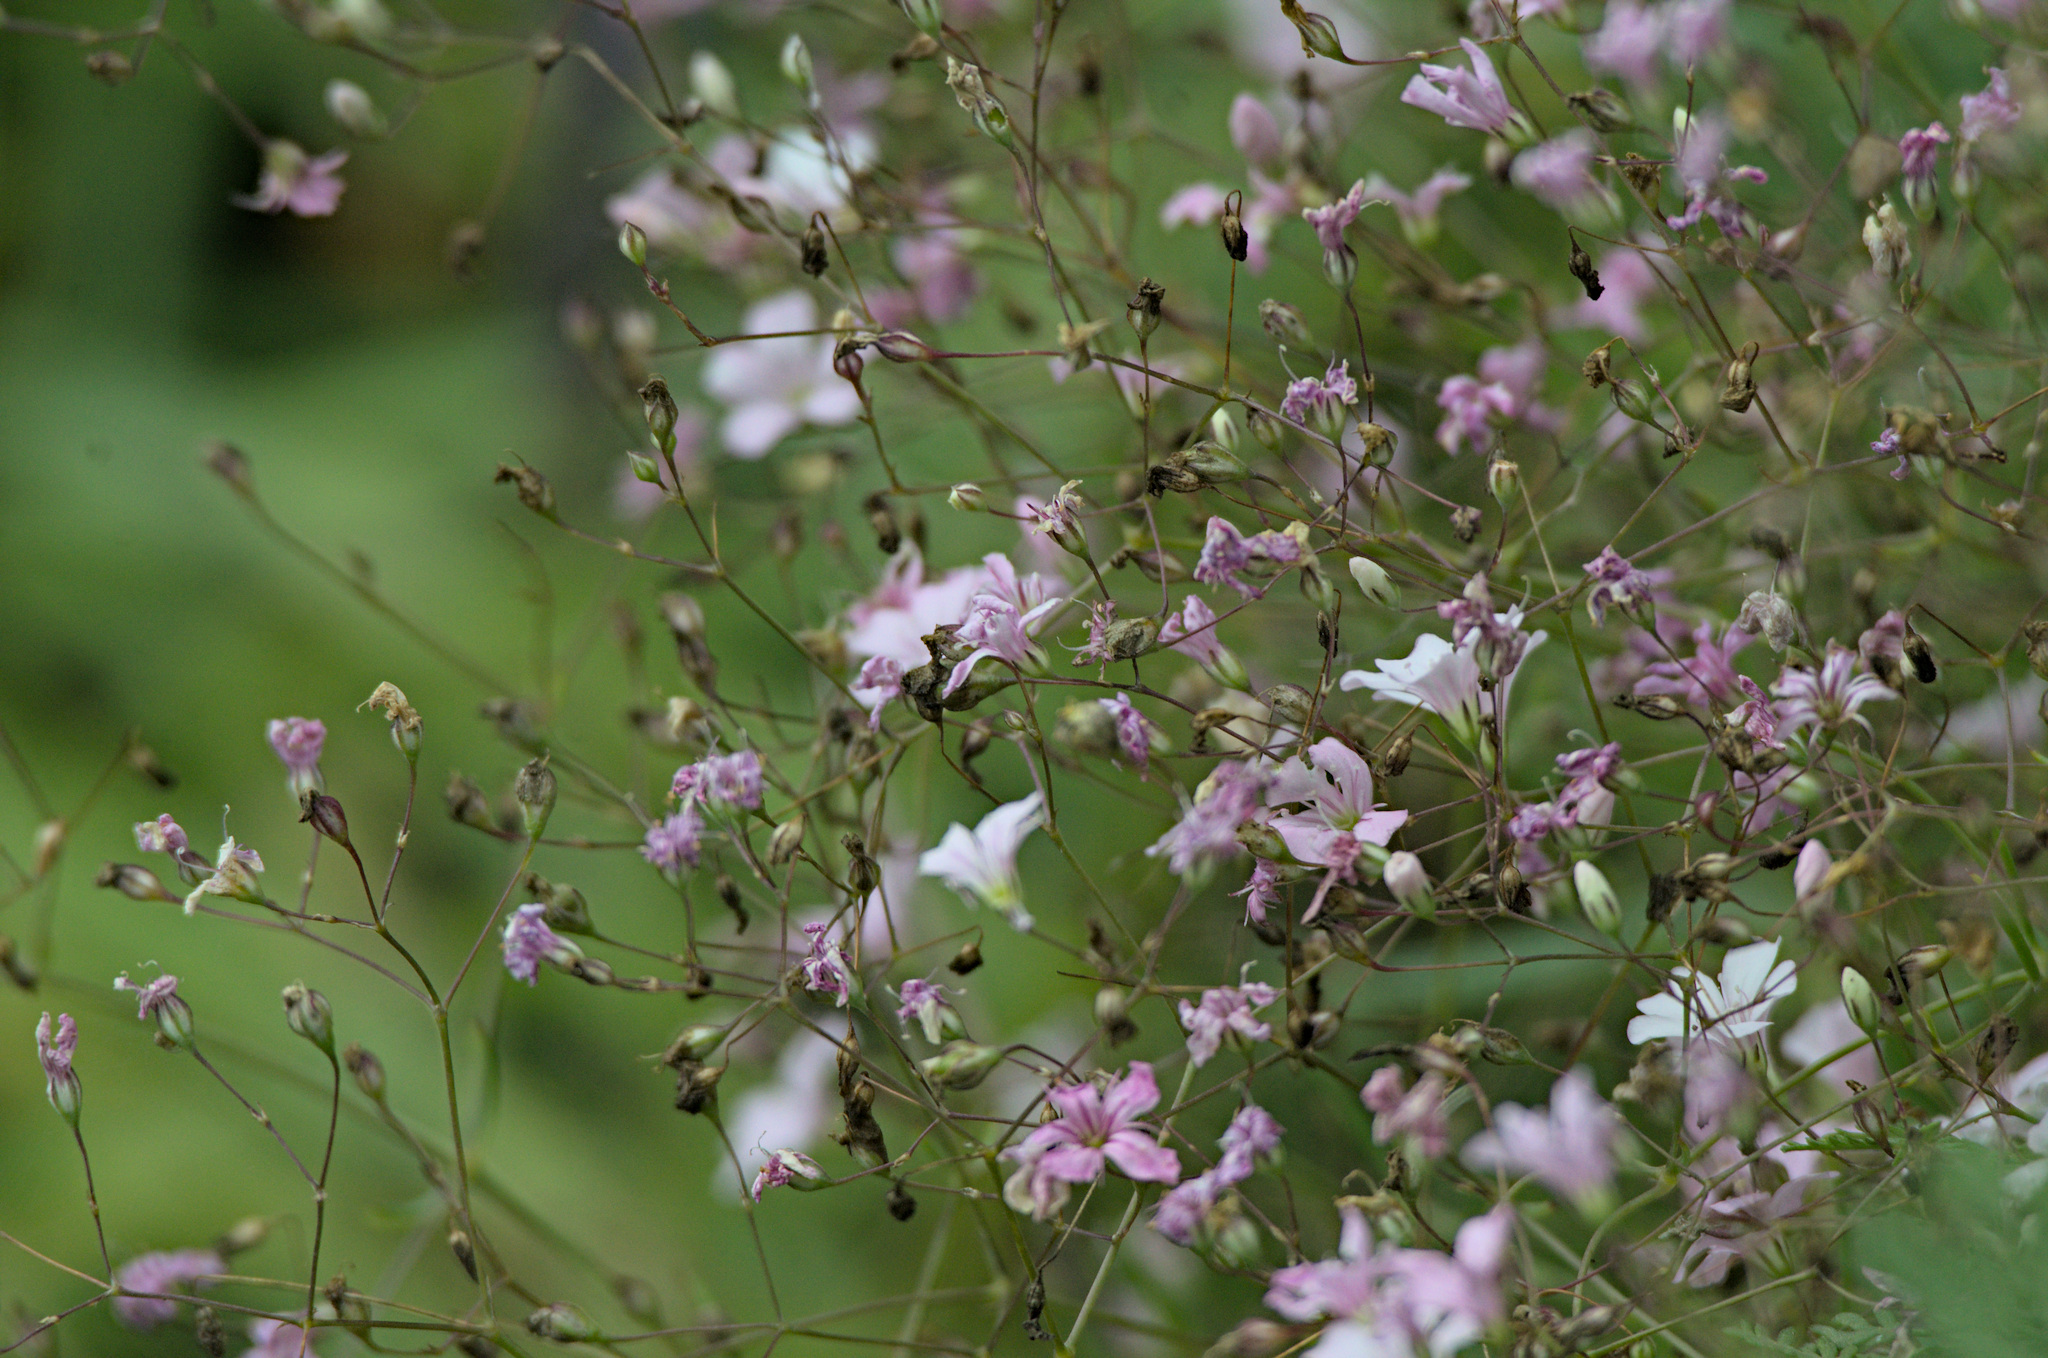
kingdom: Plantae
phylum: Tracheophyta
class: Magnoliopsida
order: Caryophyllales
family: Caryophyllaceae
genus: Gypsophila
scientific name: Gypsophila patrinii
